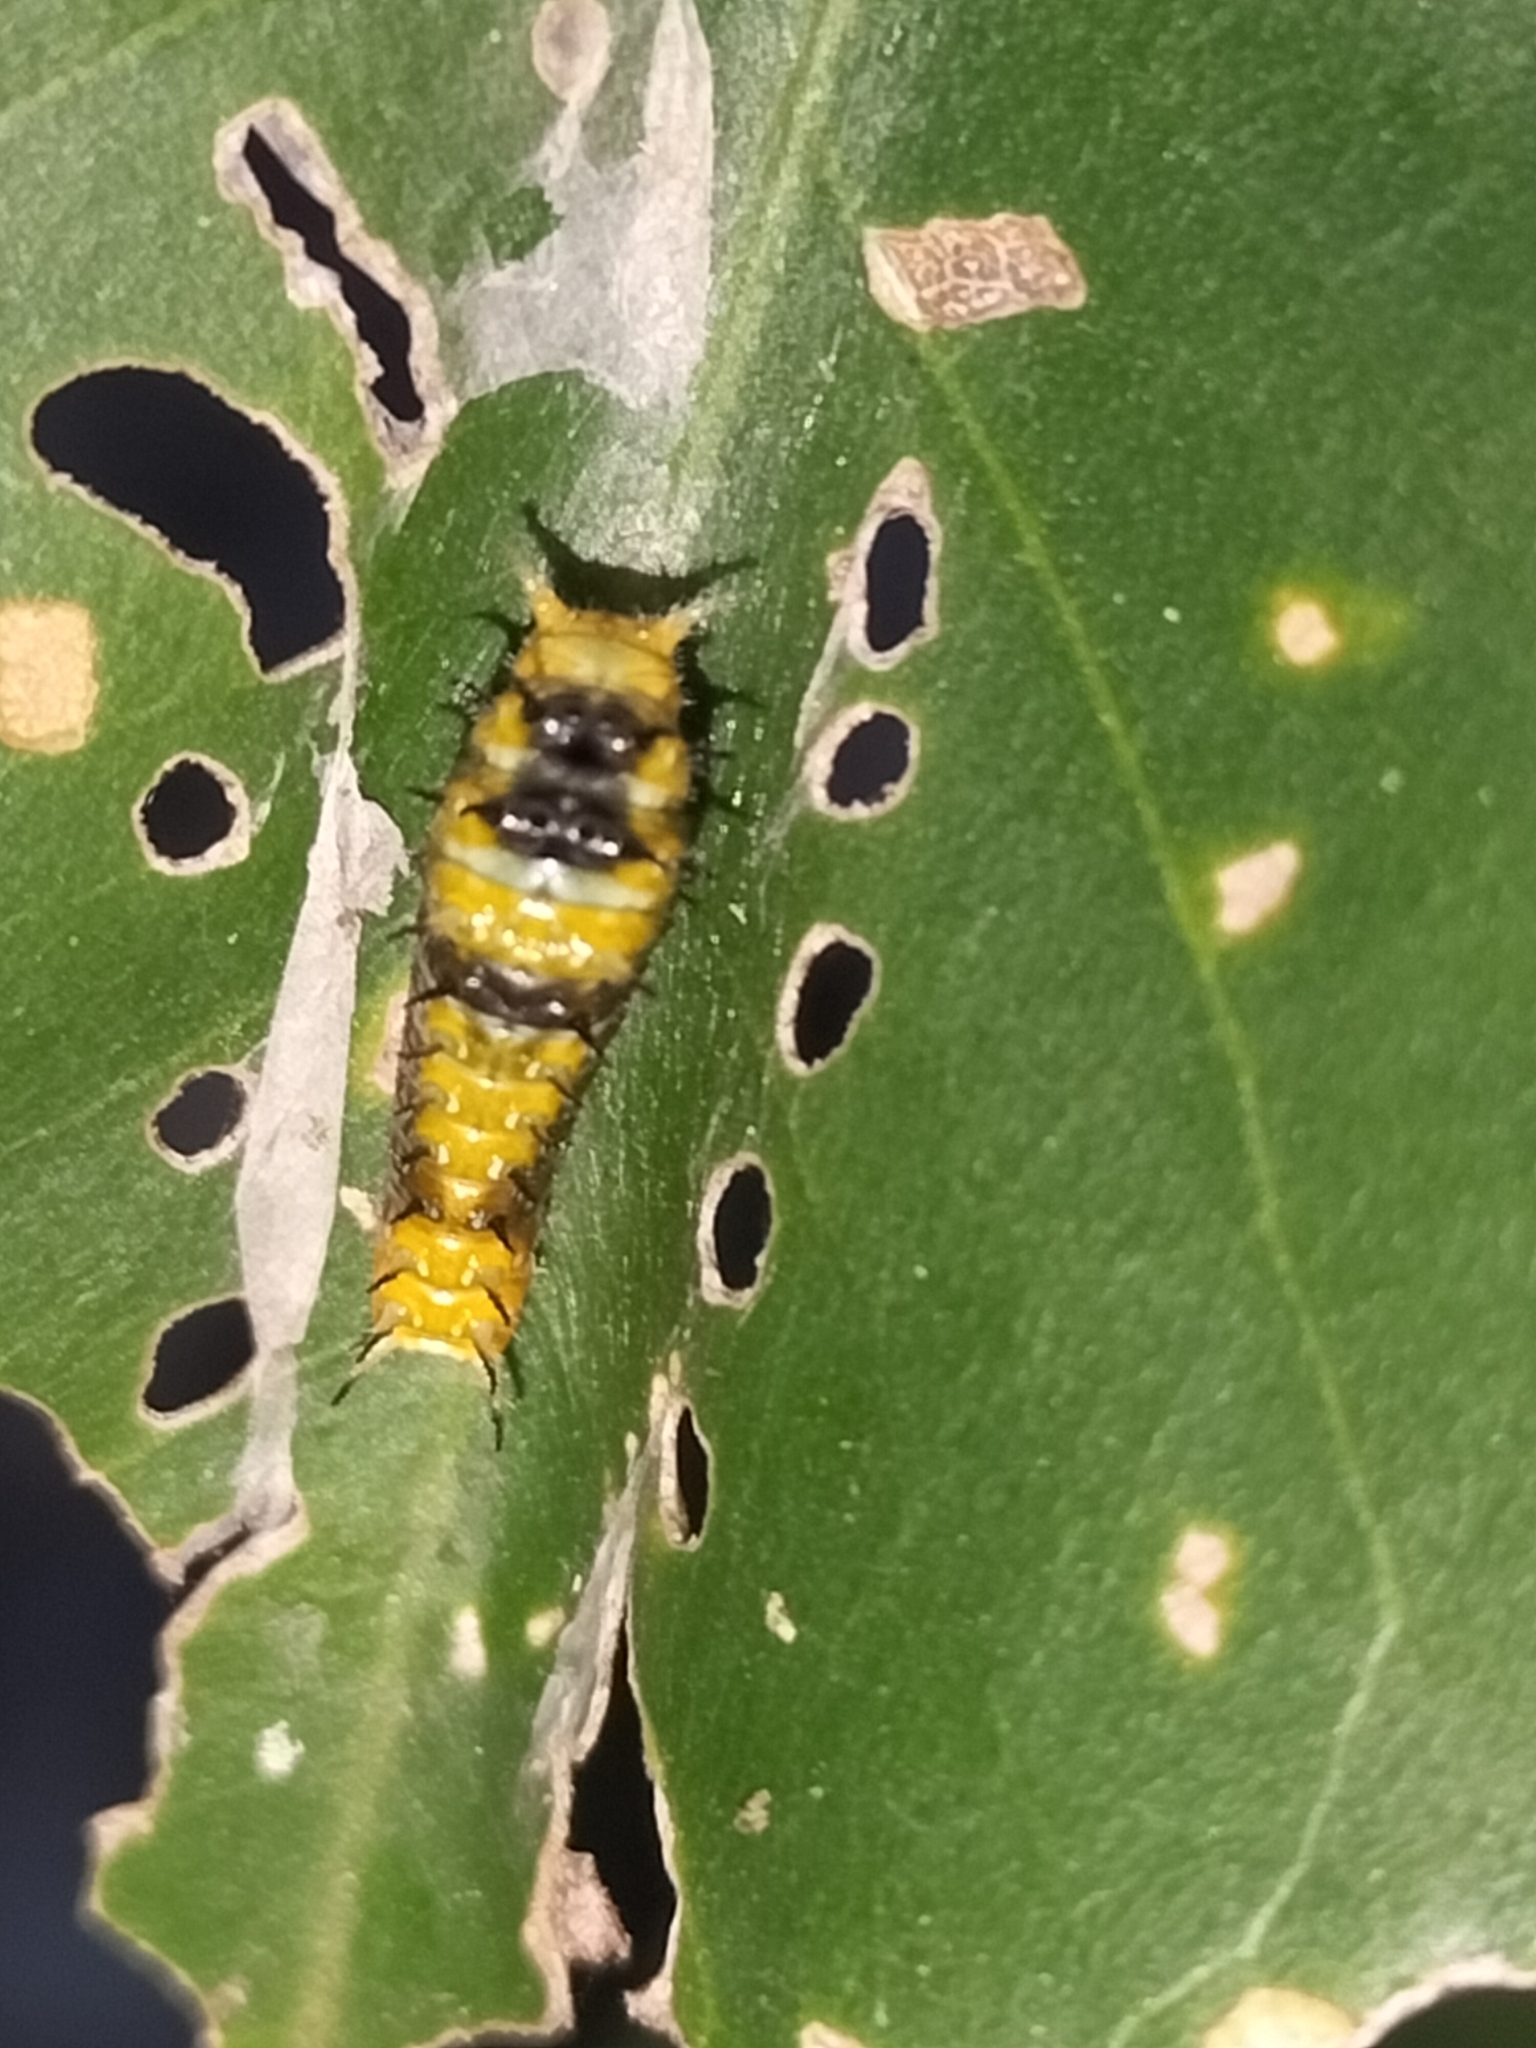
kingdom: Animalia
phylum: Arthropoda
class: Insecta
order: Lepidoptera
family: Papilionidae
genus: Papilio
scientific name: Papilio ulysses
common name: Blue emperor
